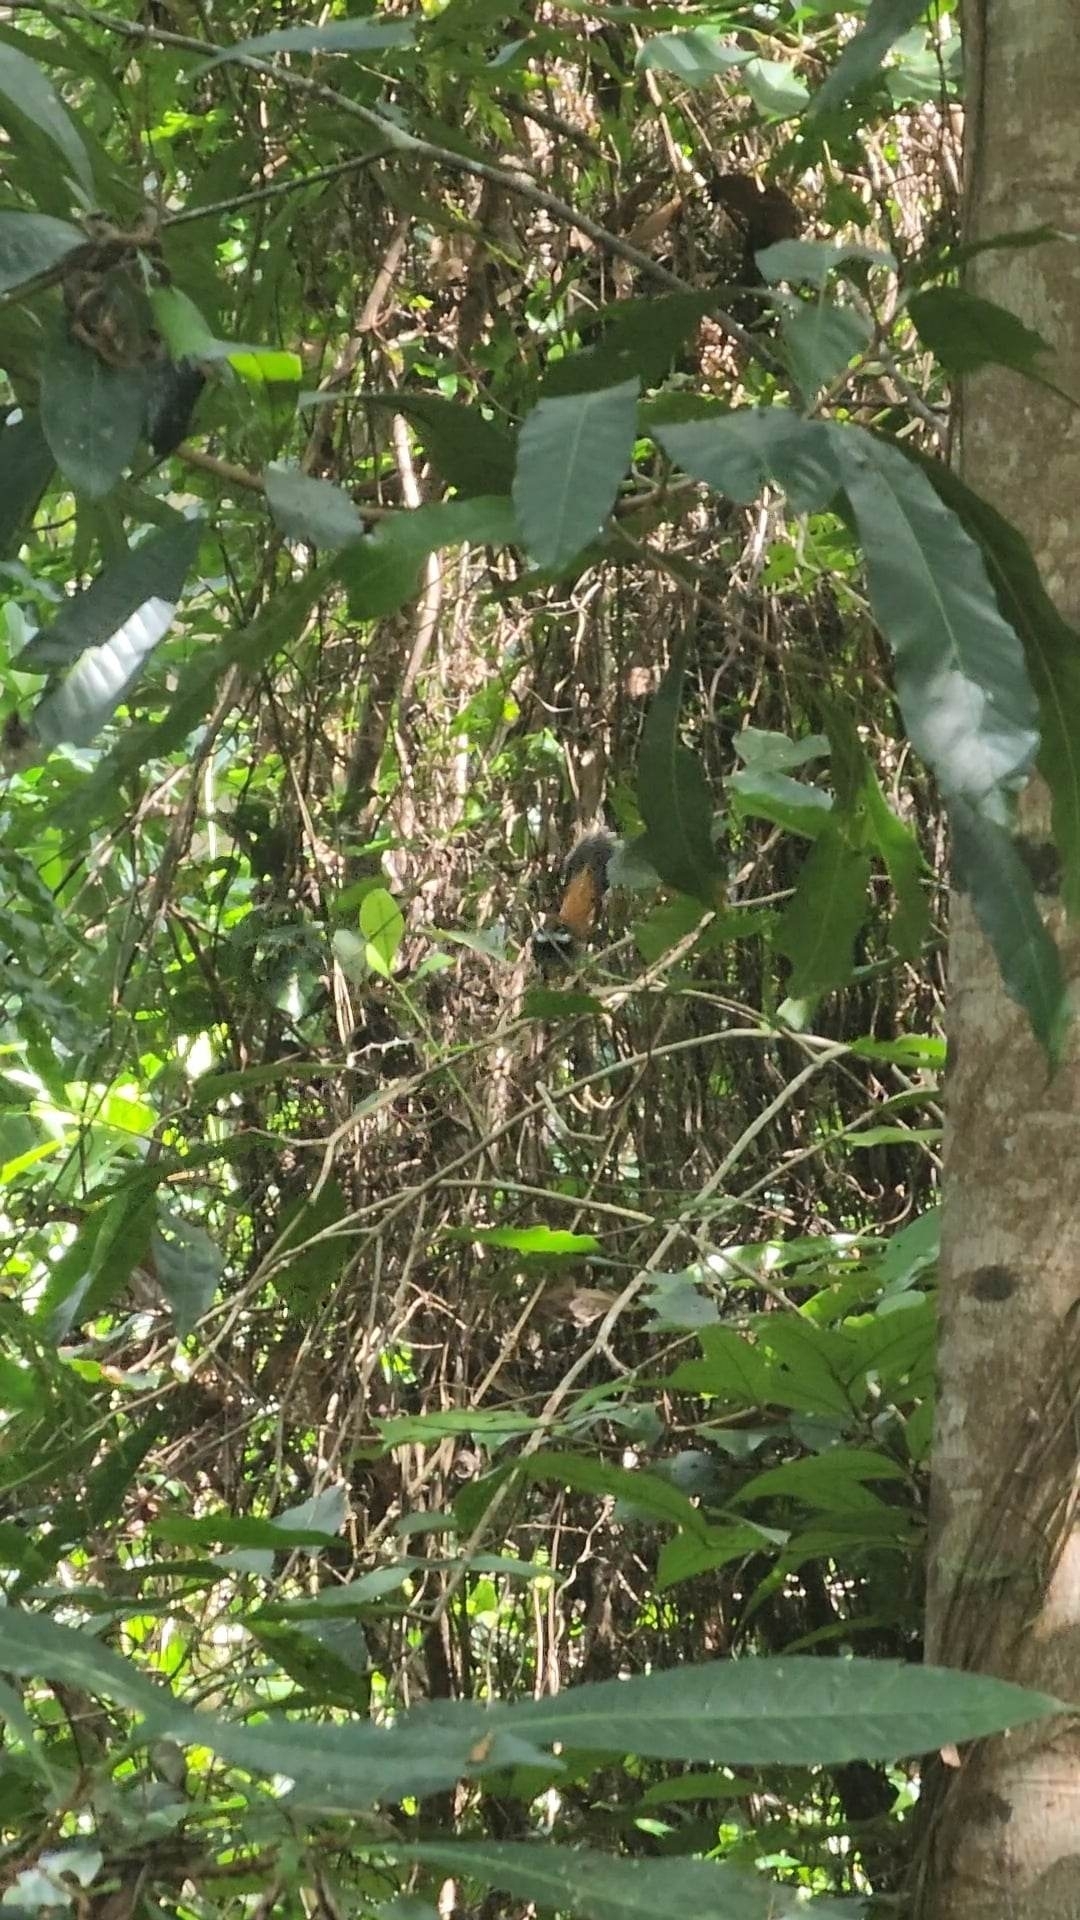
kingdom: Animalia
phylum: Chordata
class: Aves
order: Passeriformes
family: Rhipiduridae
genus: Rhipidura
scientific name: Rhipidura rufifrons
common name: Rufous fantail
